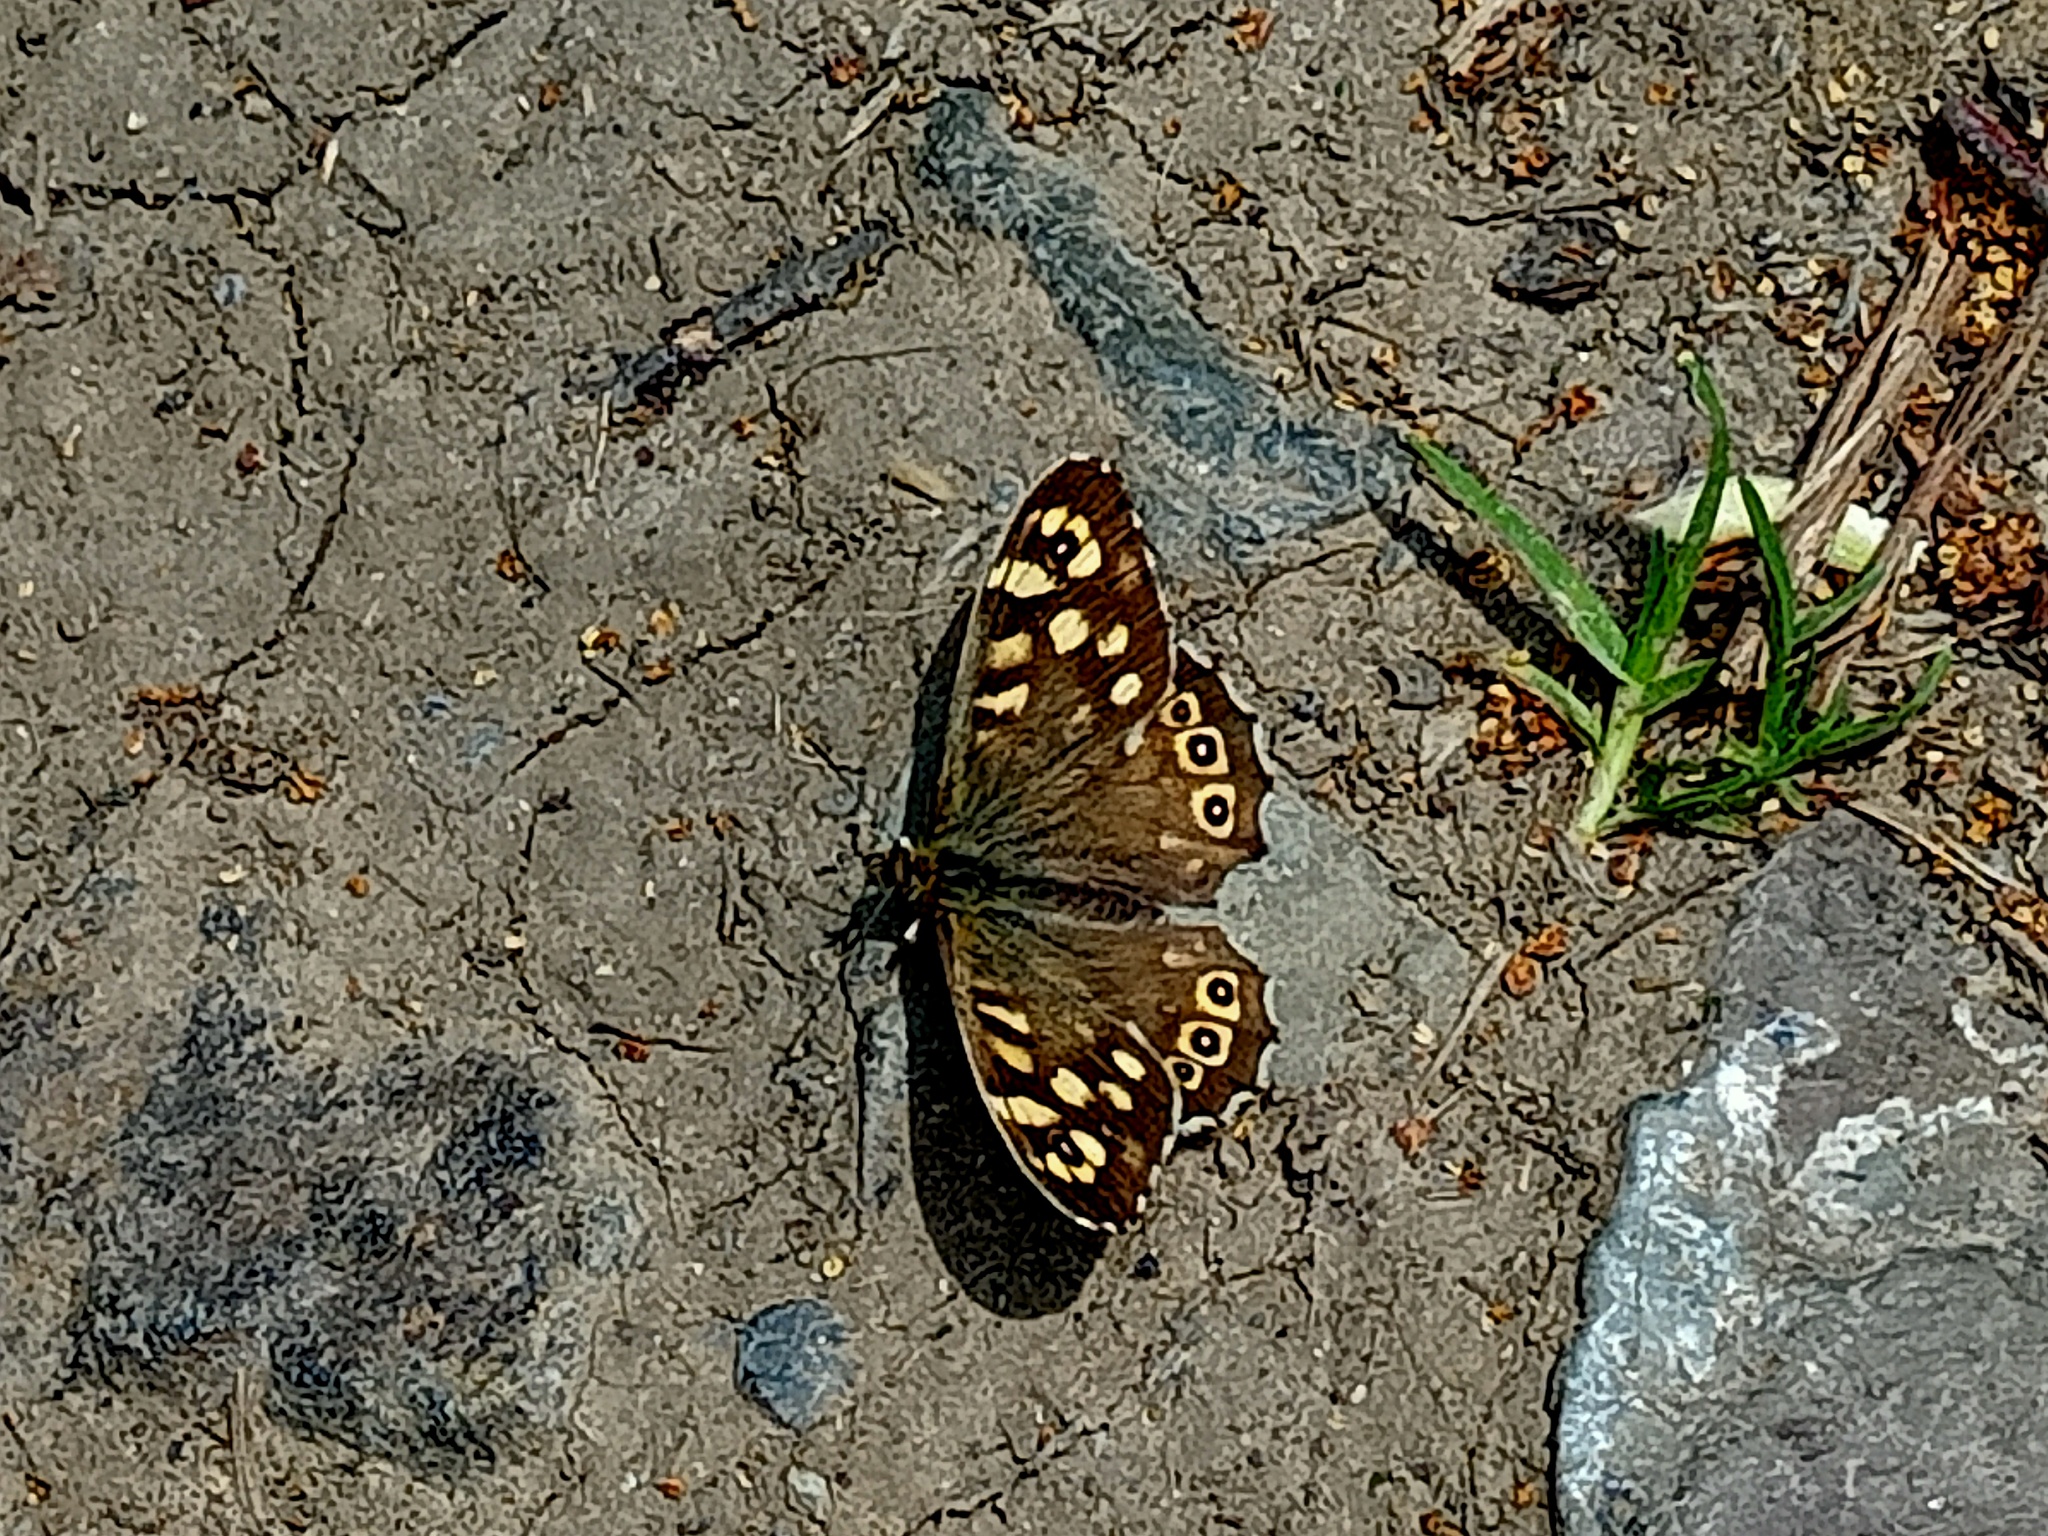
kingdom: Animalia
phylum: Arthropoda
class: Insecta
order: Lepidoptera
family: Nymphalidae
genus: Pararge
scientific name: Pararge aegeria
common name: Speckled wood
